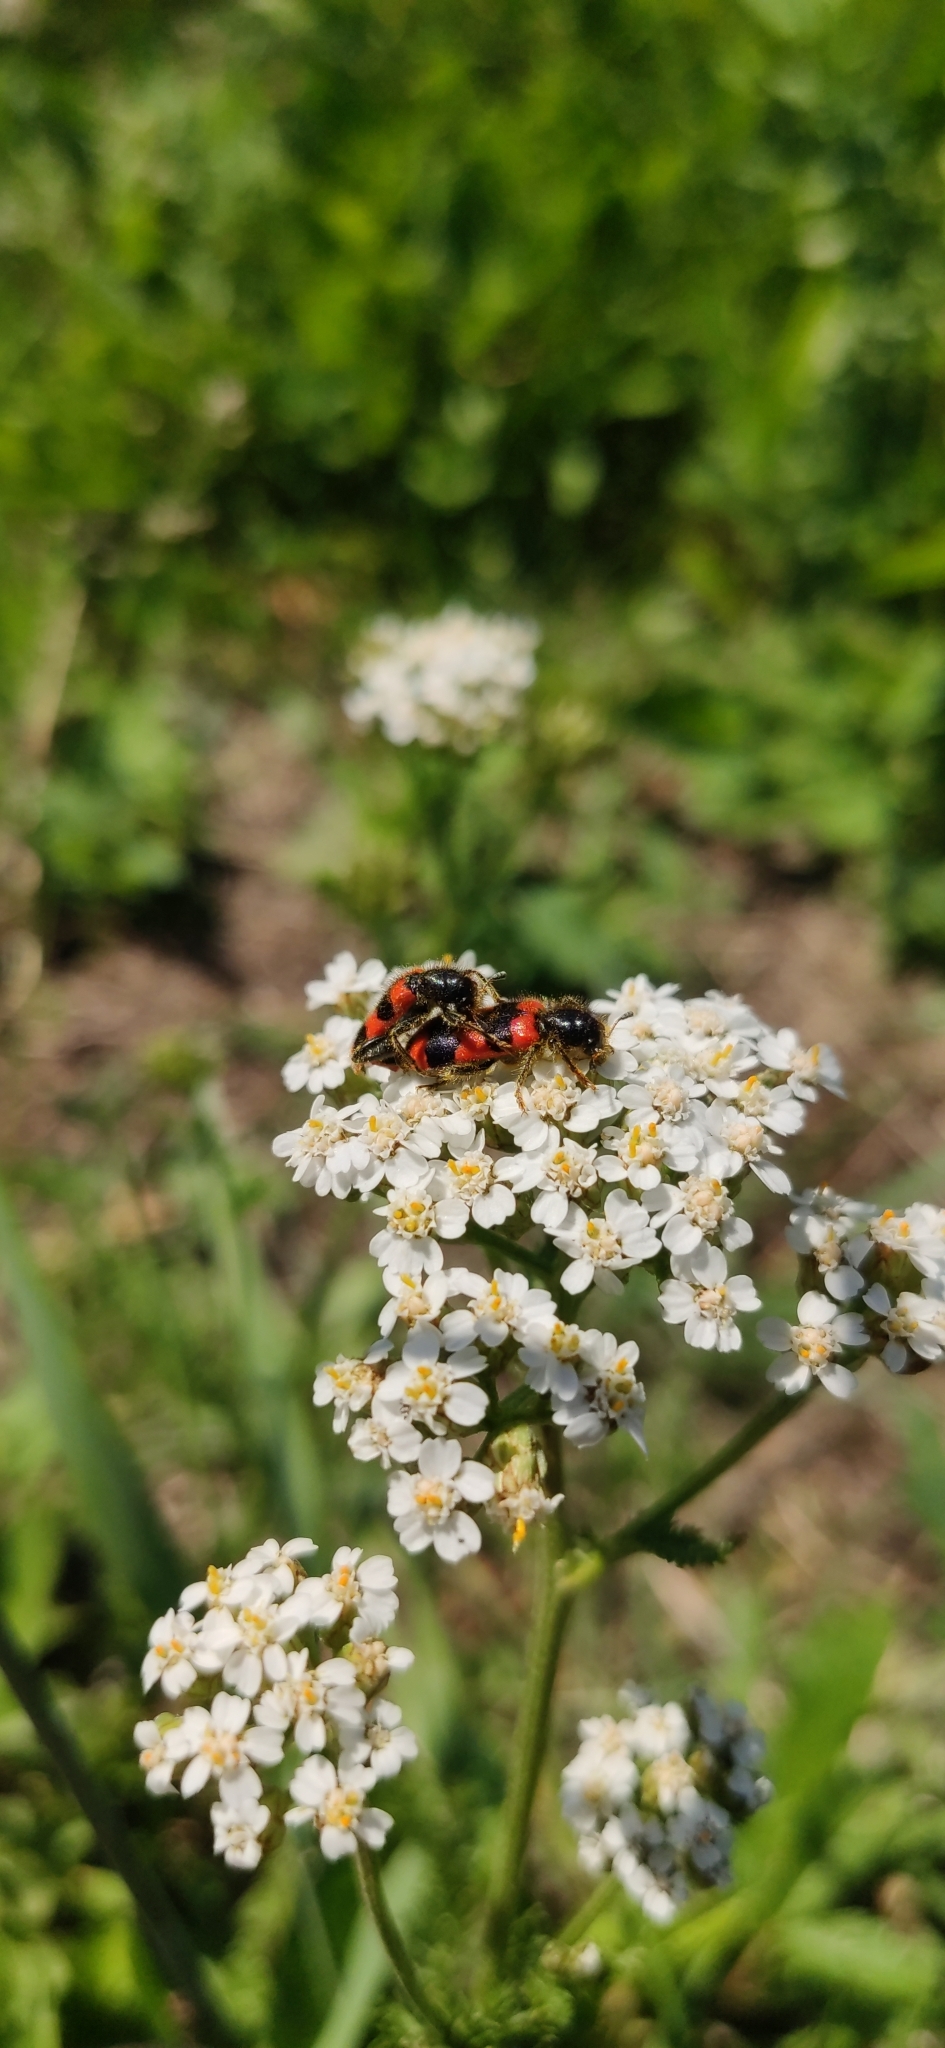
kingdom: Animalia
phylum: Arthropoda
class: Insecta
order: Coleoptera
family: Cleridae
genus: Trichodes
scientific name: Trichodes apiarius
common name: Bee-eating beetle
